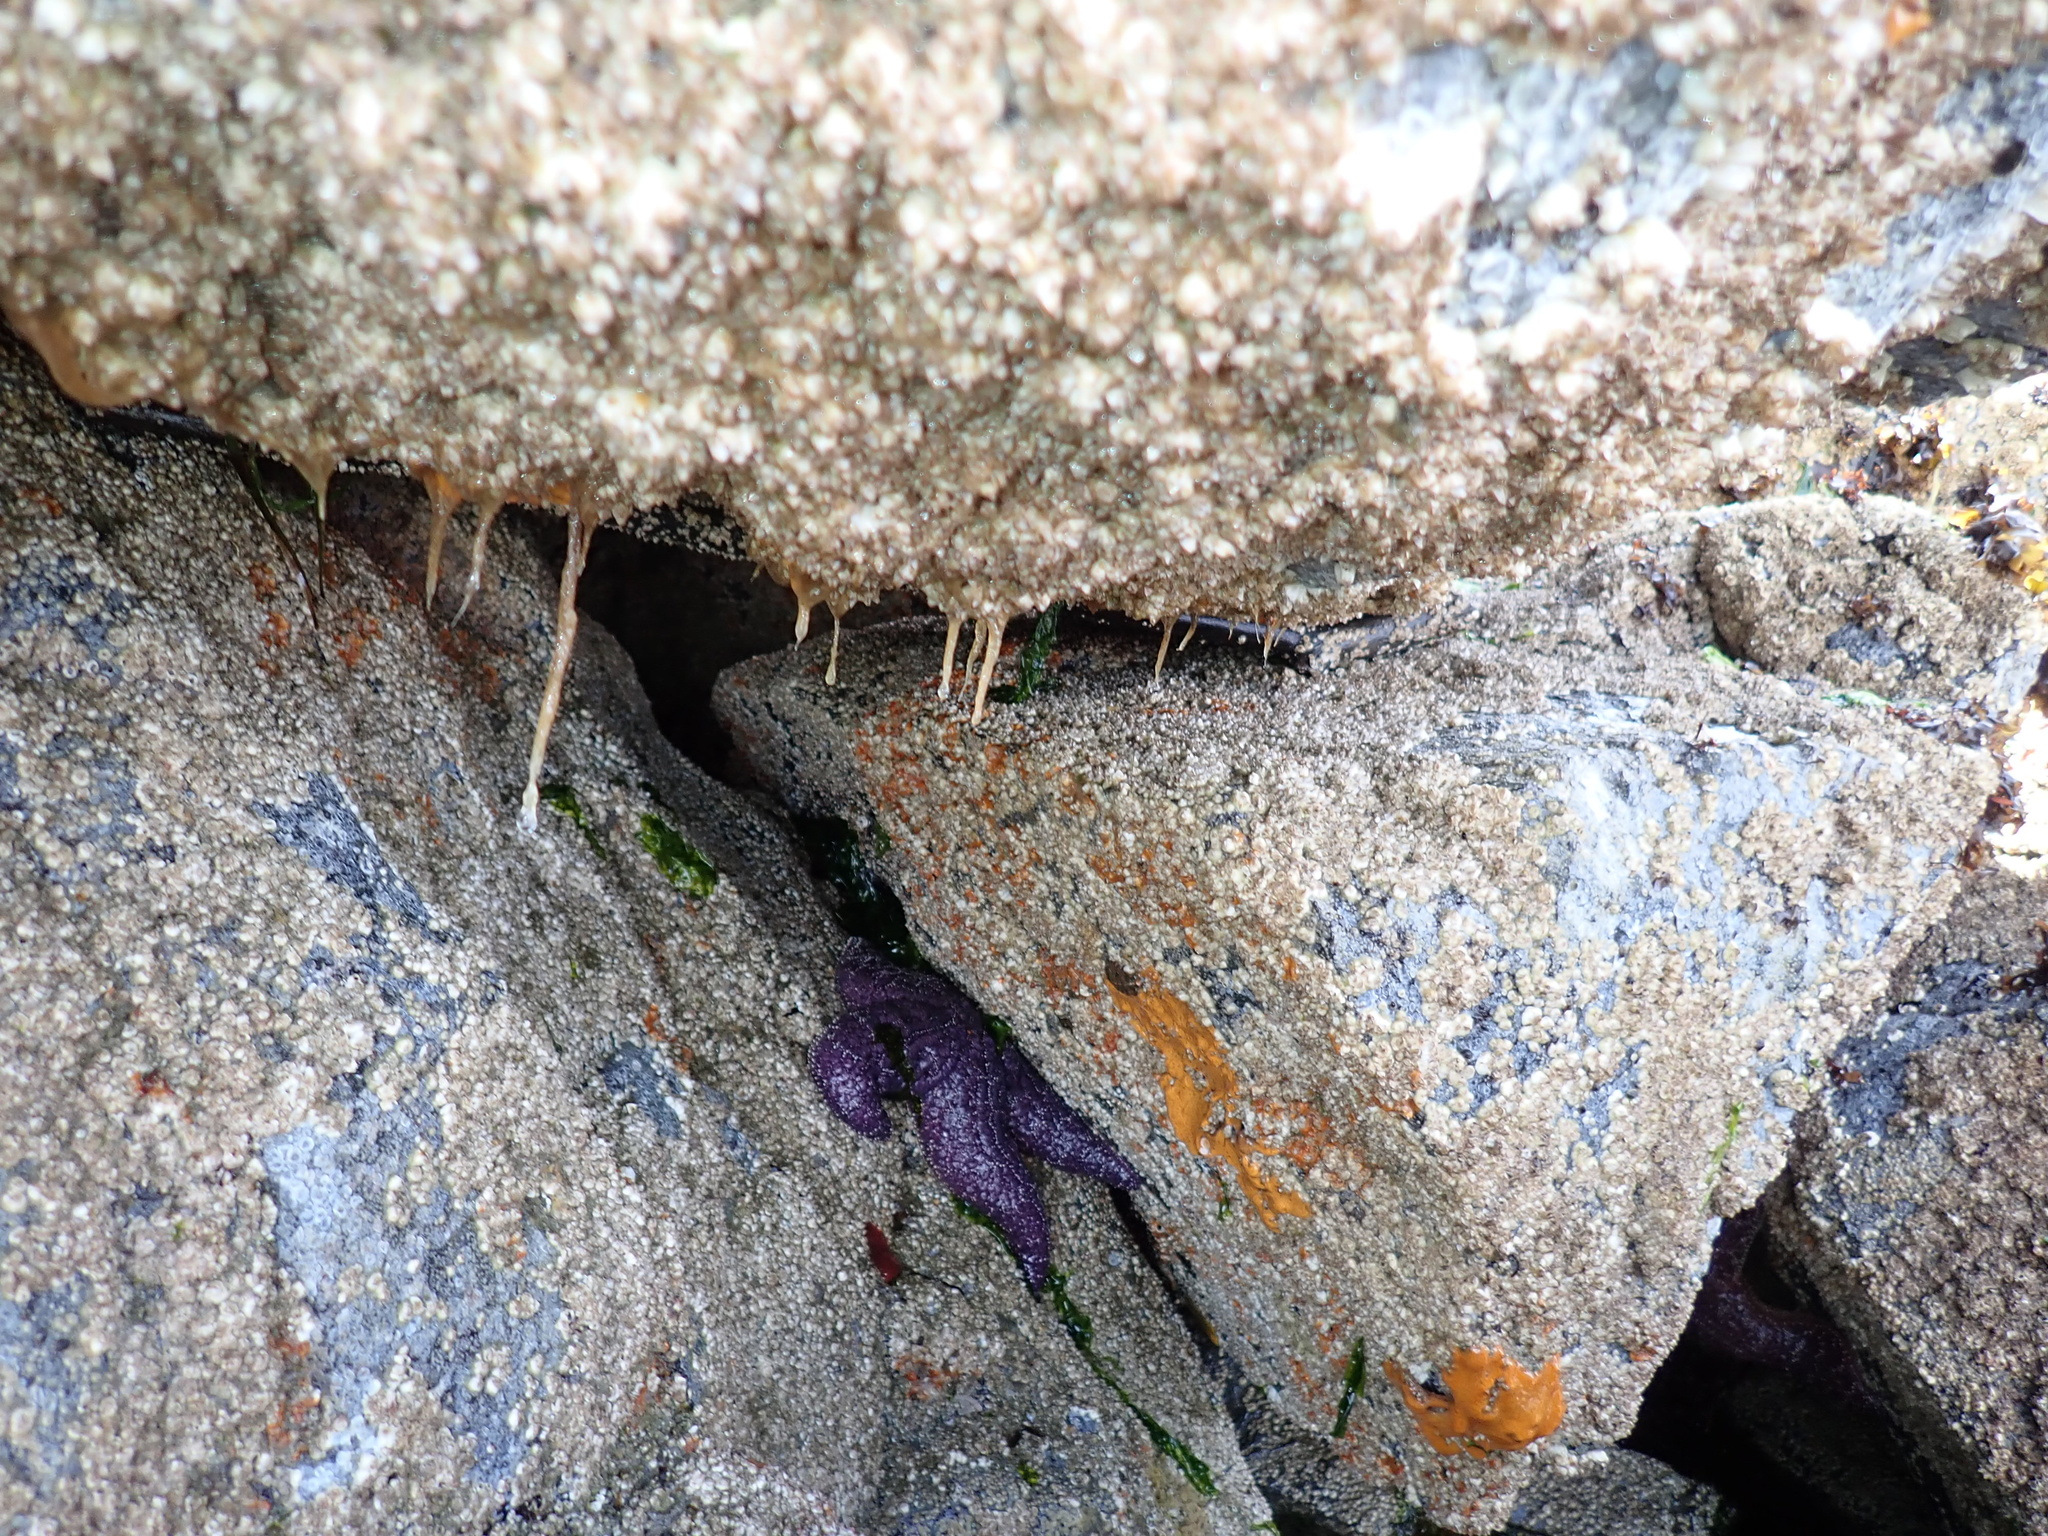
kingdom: Animalia
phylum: Echinodermata
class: Asteroidea
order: Forcipulatida
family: Asteriidae
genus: Pisaster
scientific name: Pisaster ochraceus
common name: Ochre stars
